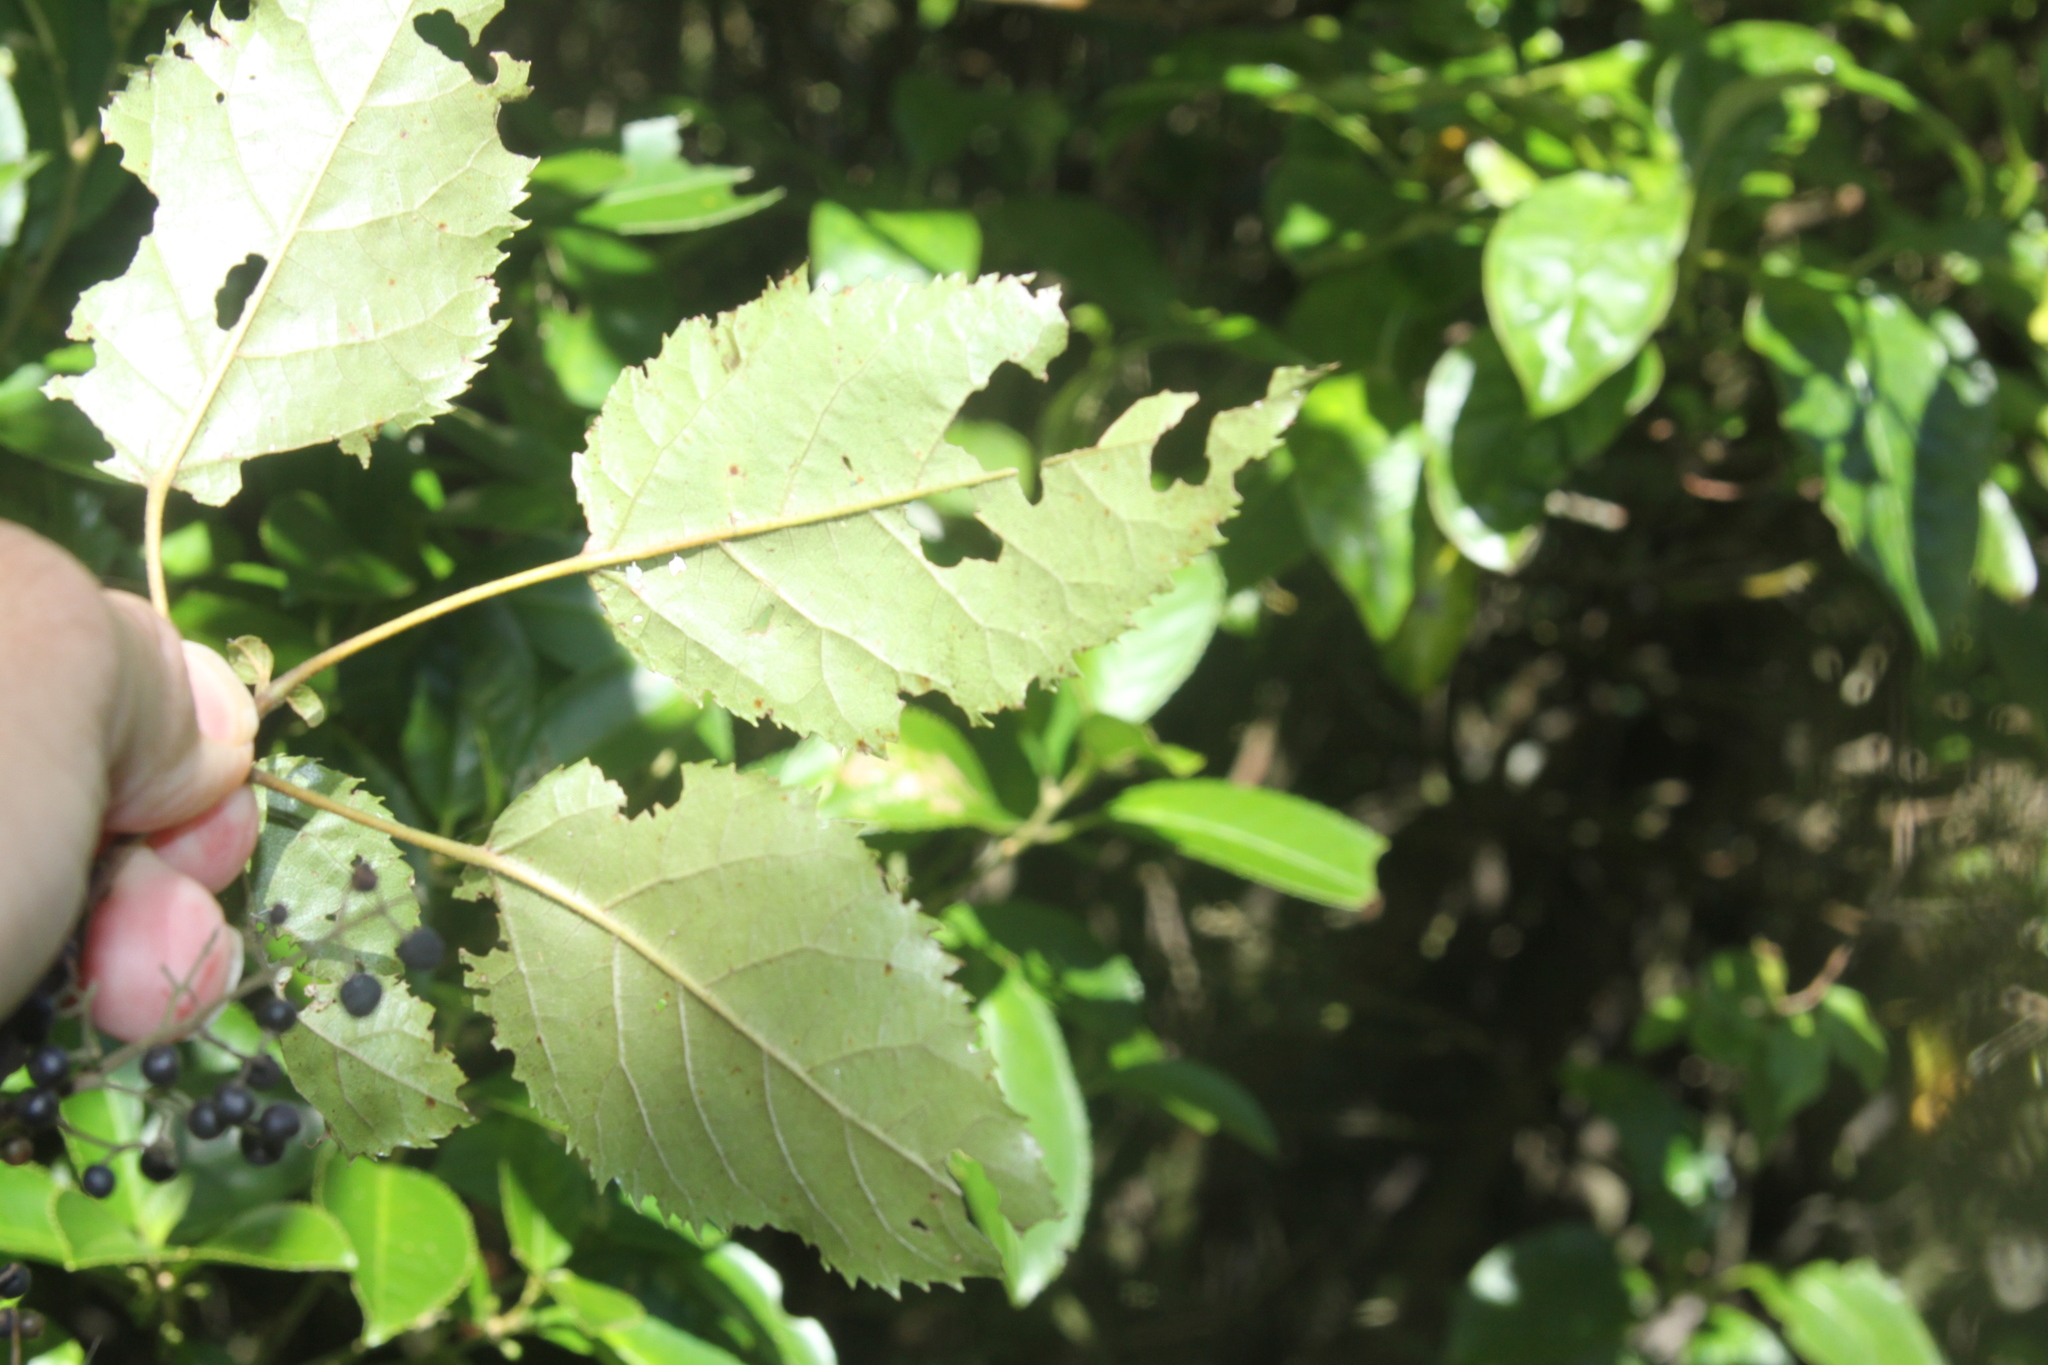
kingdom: Plantae
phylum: Tracheophyta
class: Magnoliopsida
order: Oxalidales
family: Elaeocarpaceae
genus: Aristotelia
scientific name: Aristotelia serrata
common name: New zealand wineberry
